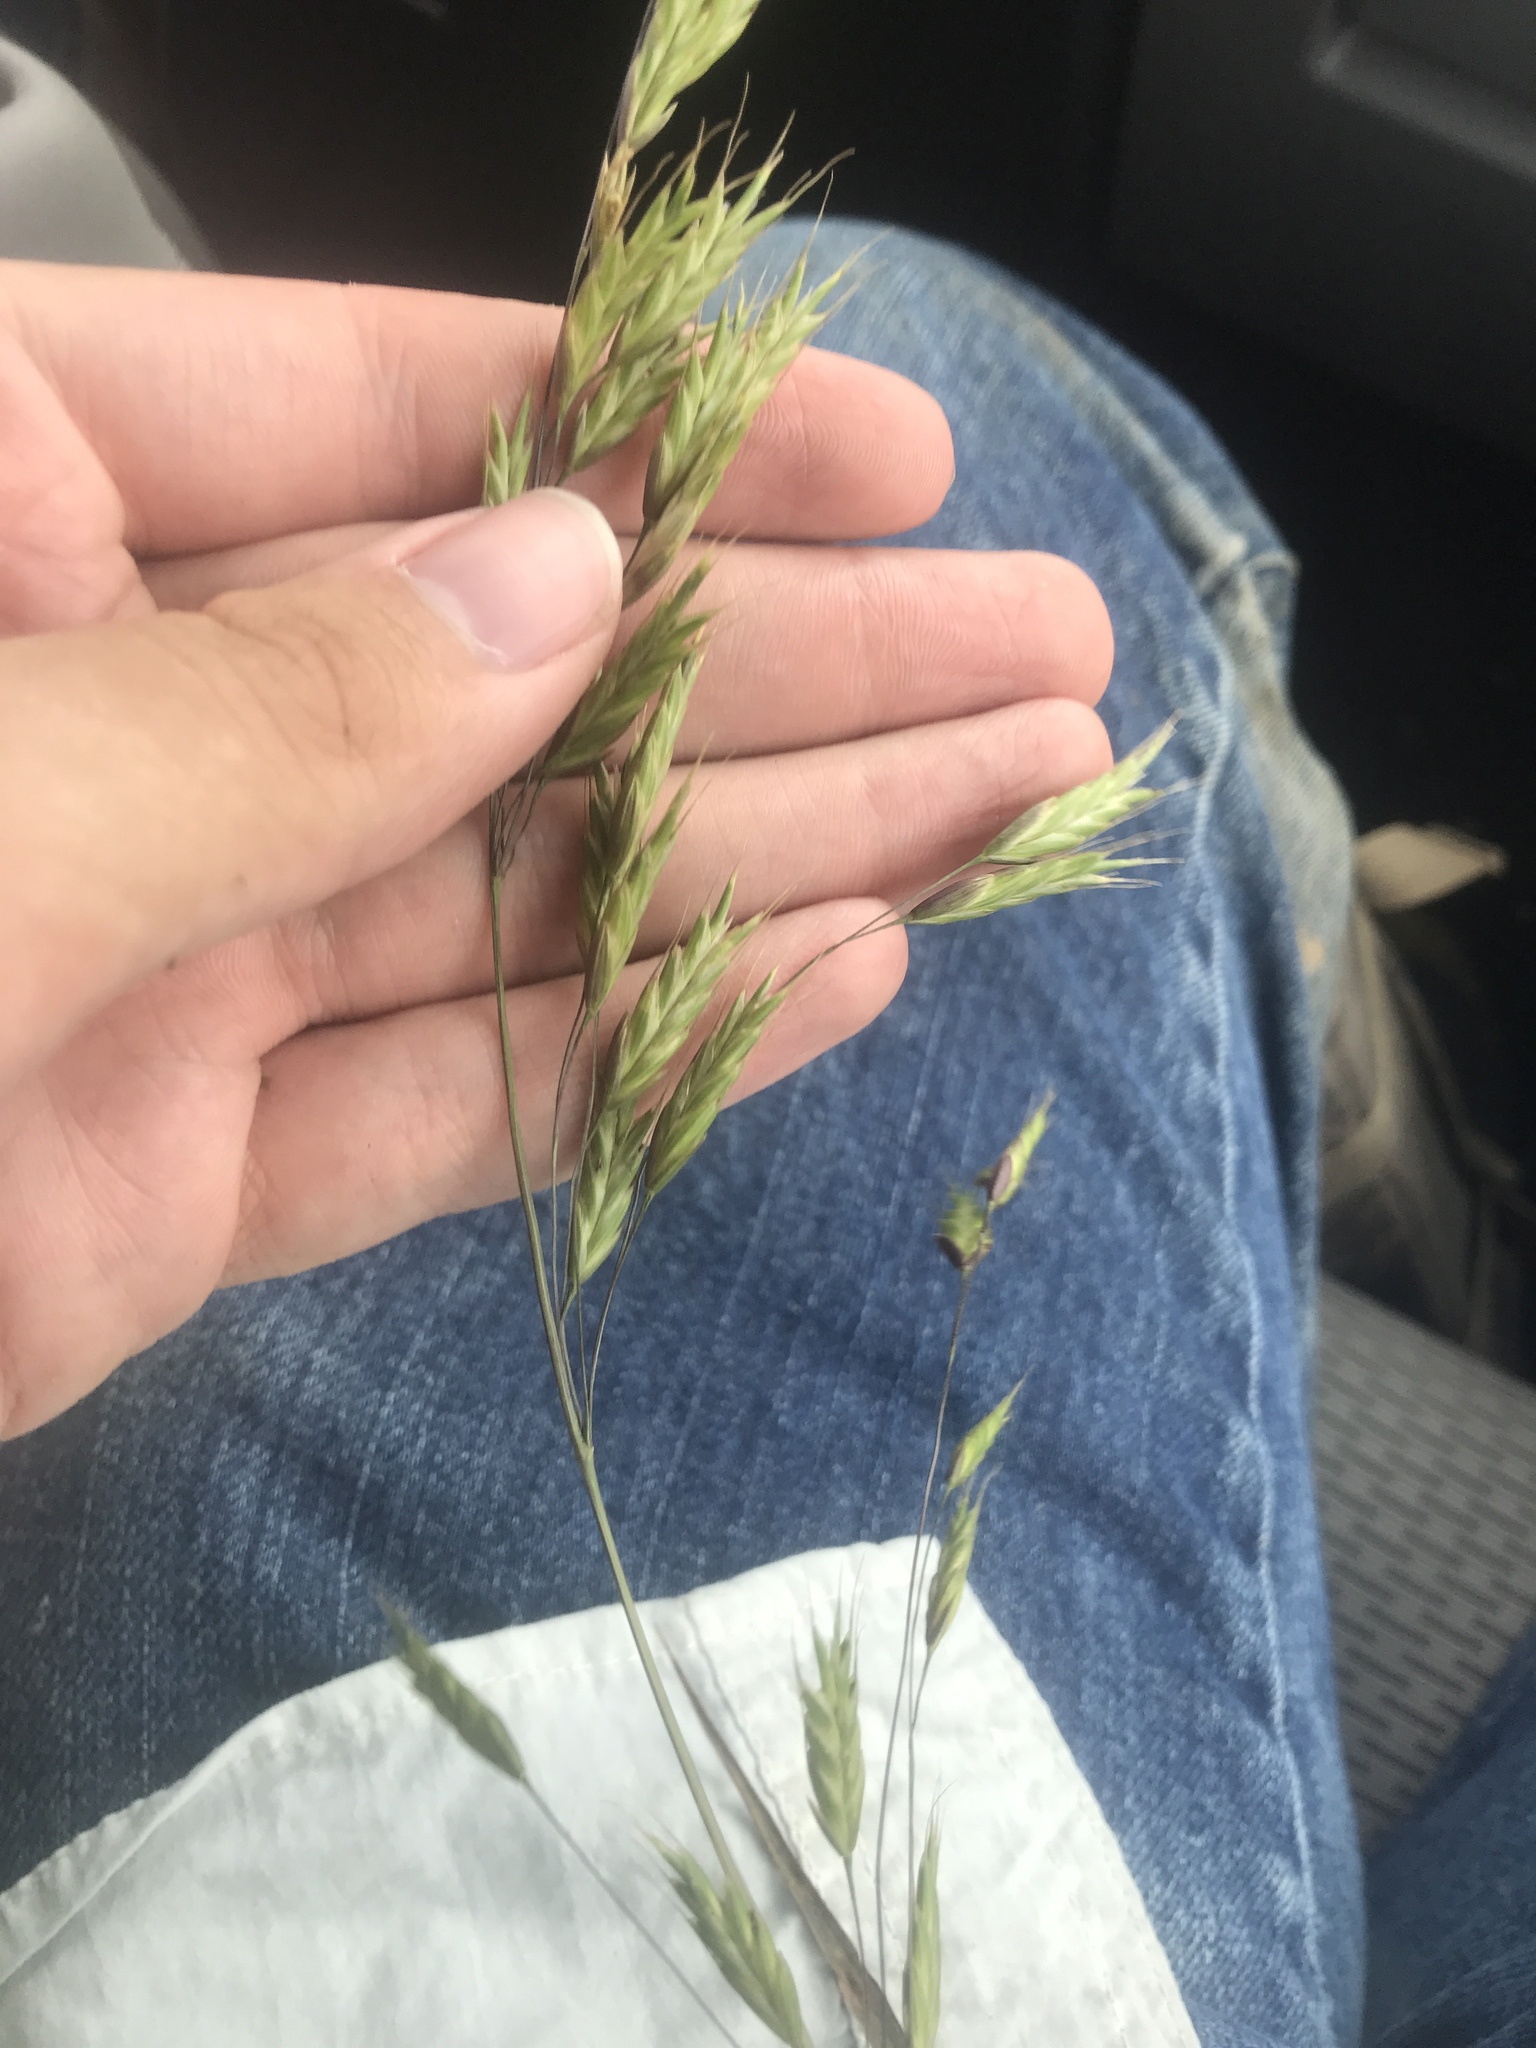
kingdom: Plantae
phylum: Tracheophyta
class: Liliopsida
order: Poales
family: Poaceae
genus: Bromus
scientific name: Bromus japonicus
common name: Japanese brome
